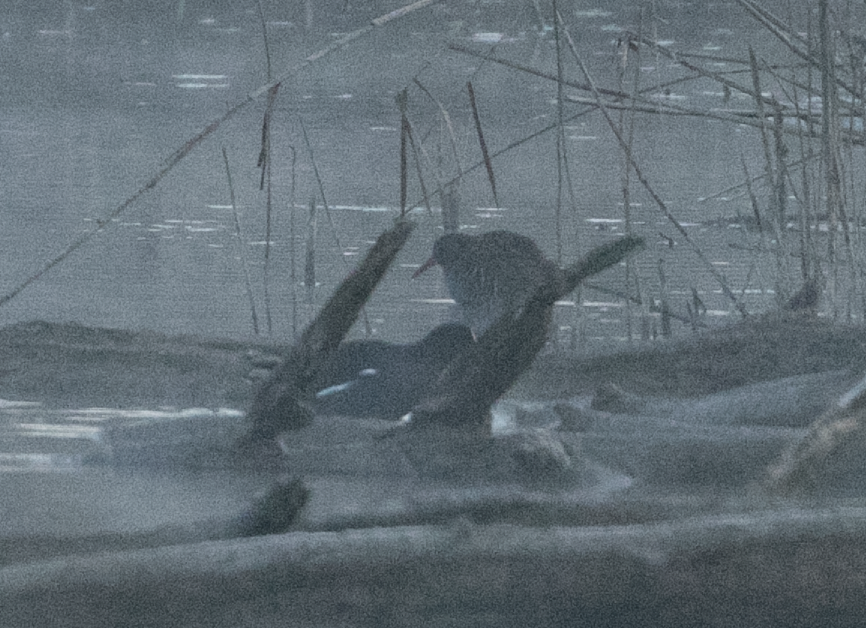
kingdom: Animalia
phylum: Chordata
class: Aves
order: Gruiformes
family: Rallidae
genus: Rallus
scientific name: Rallus aquaticus
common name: Water rail
